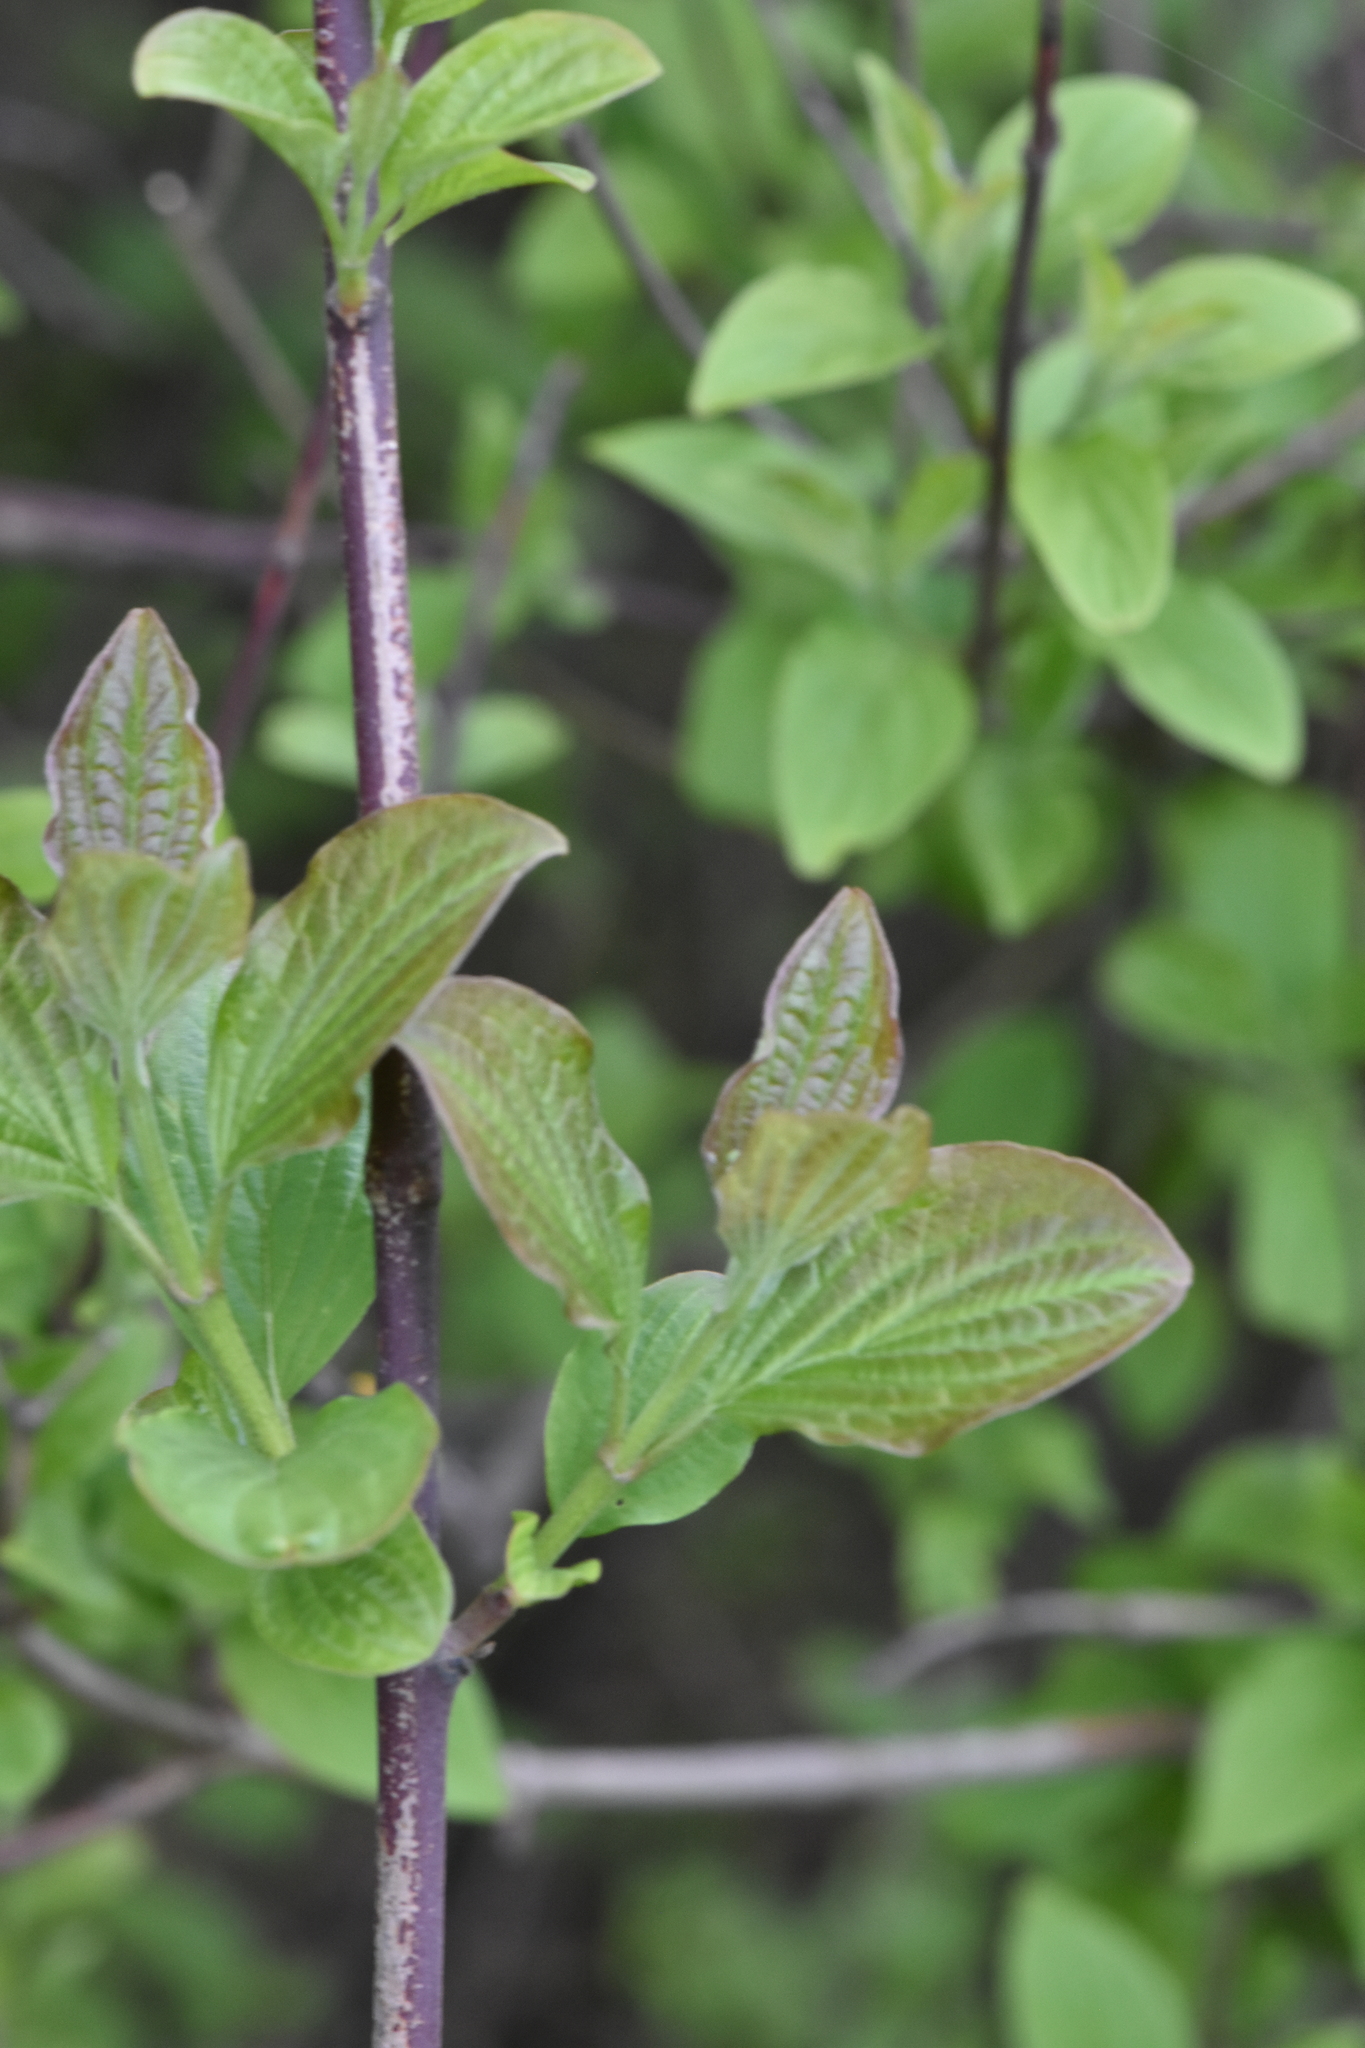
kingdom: Plantae
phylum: Tracheophyta
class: Magnoliopsida
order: Cornales
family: Cornaceae
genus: Cornus
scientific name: Cornus sanguinea
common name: Dogwood
